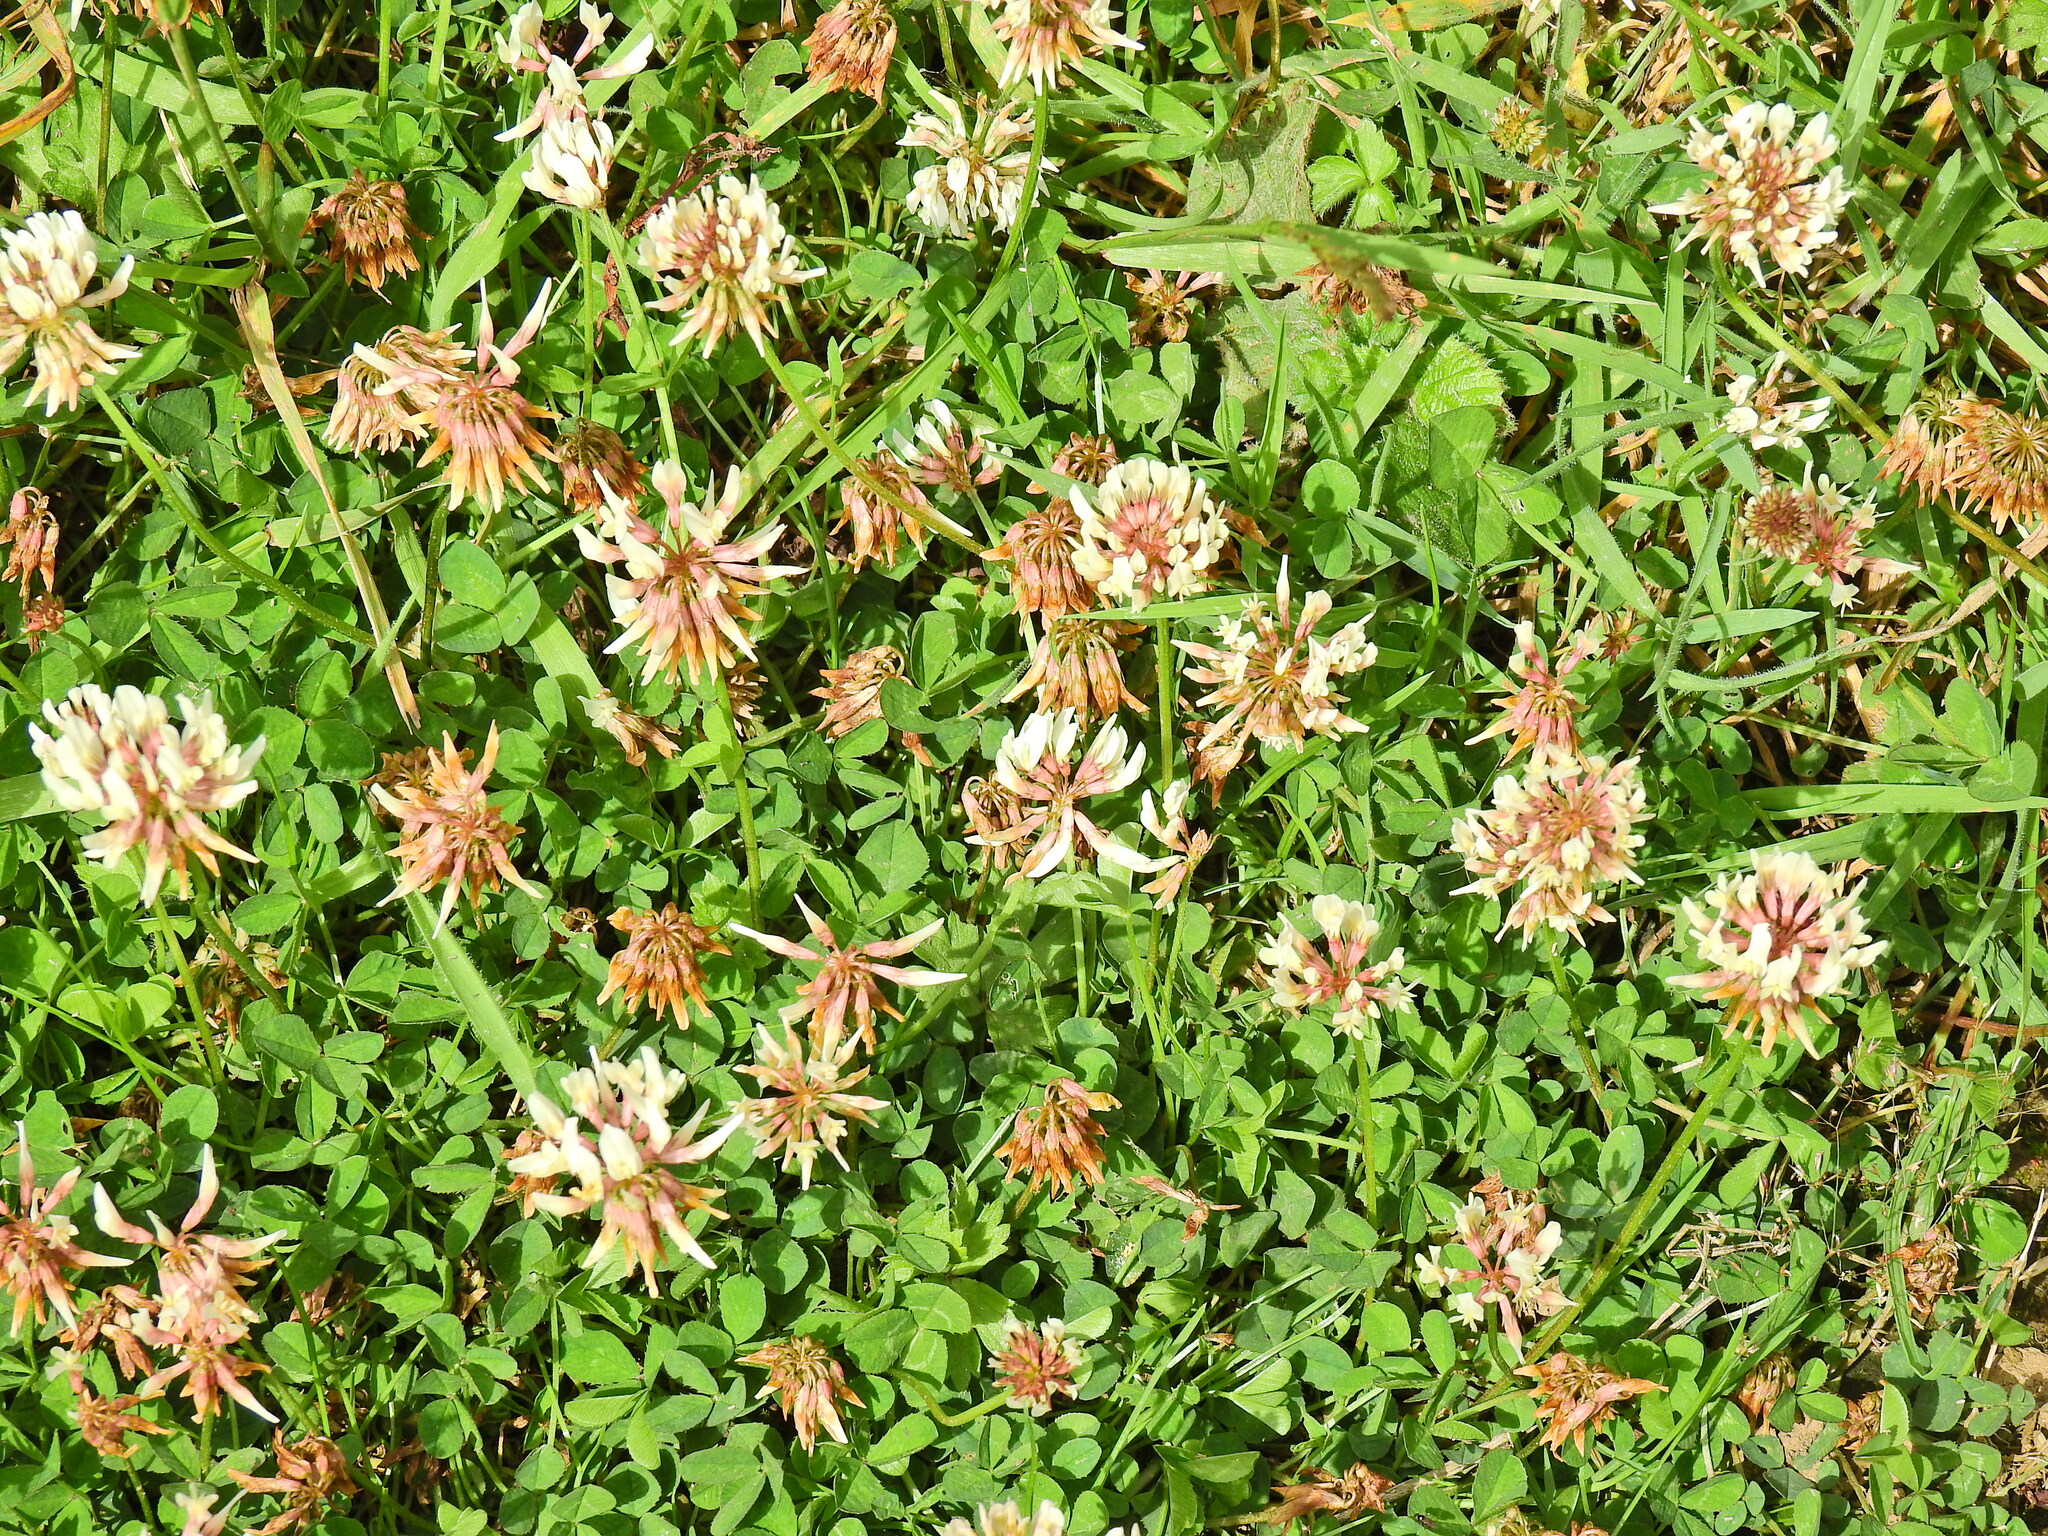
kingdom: Plantae
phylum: Tracheophyta
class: Magnoliopsida
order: Fabales
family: Fabaceae
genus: Trifolium
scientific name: Trifolium repens
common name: White clover
